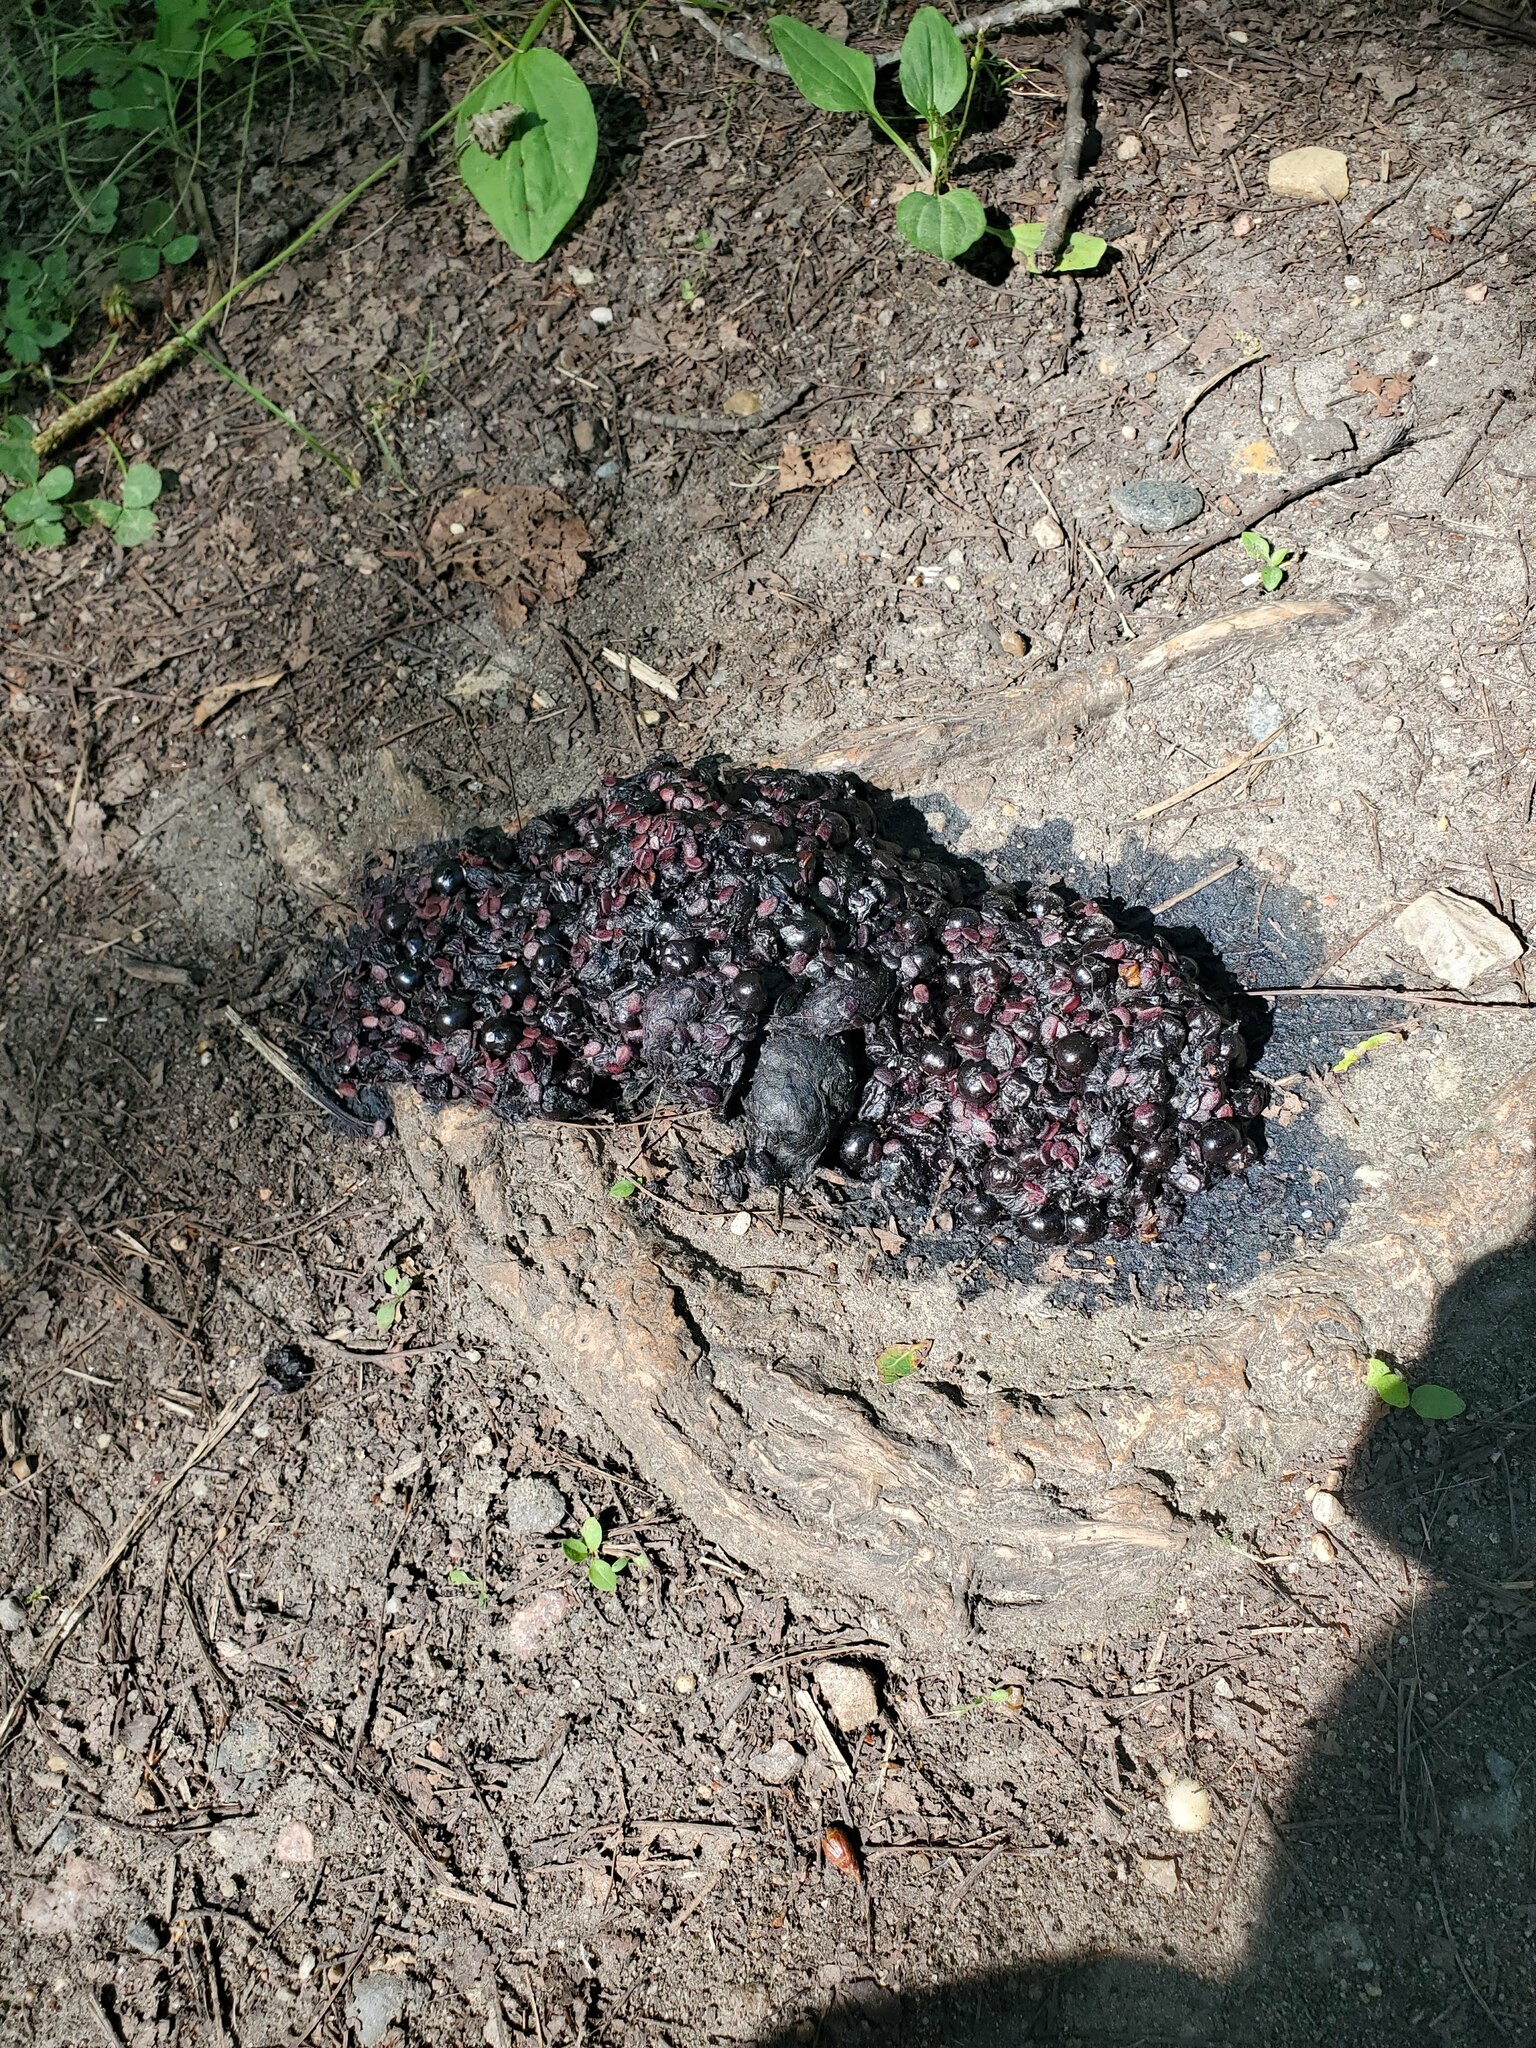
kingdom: Animalia
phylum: Chordata
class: Mammalia
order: Carnivora
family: Ursidae
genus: Ursus
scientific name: Ursus americanus
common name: American black bear
